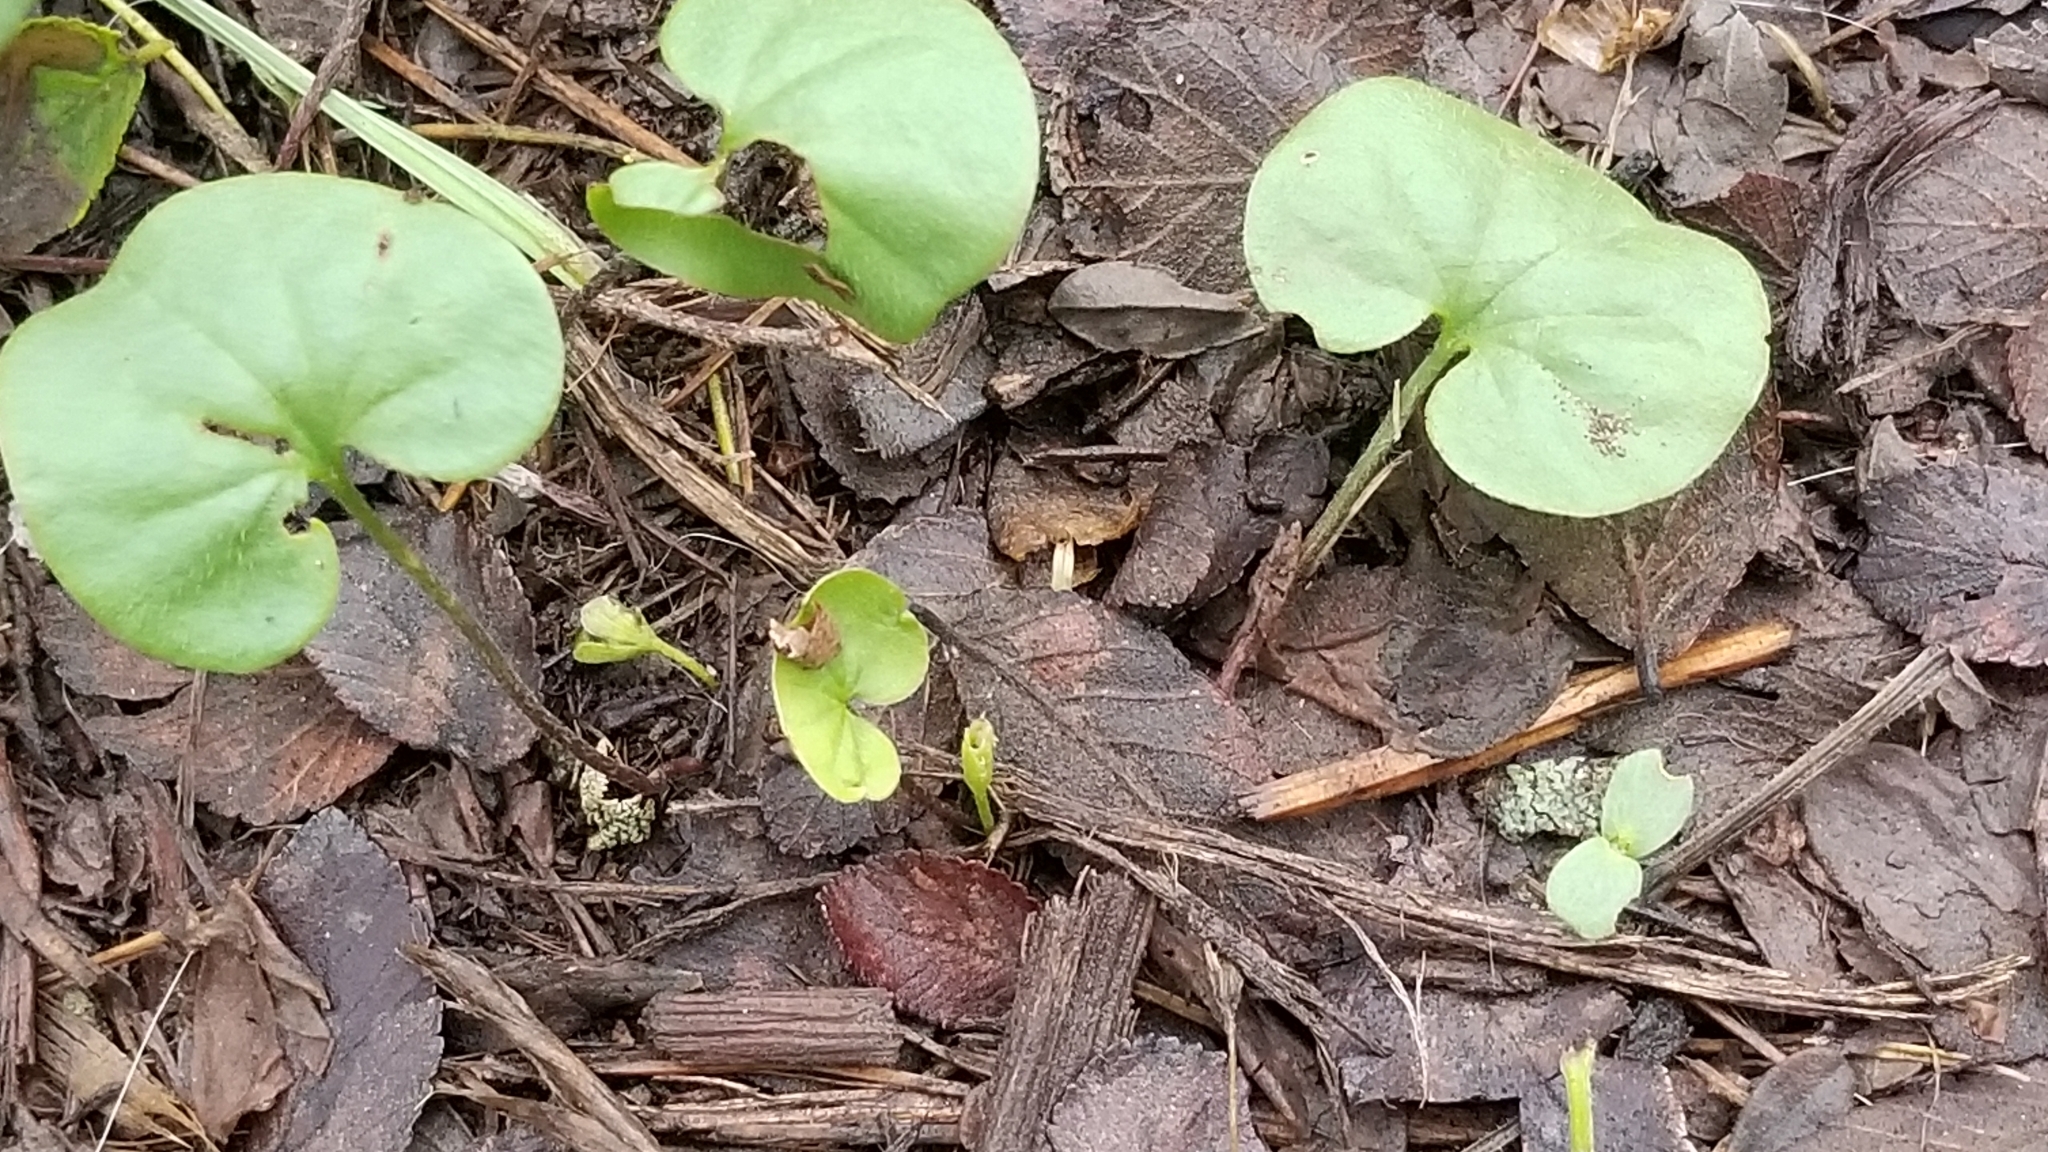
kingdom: Plantae
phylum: Tracheophyta
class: Magnoliopsida
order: Solanales
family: Convolvulaceae
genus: Dichondra
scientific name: Dichondra carolinensis
